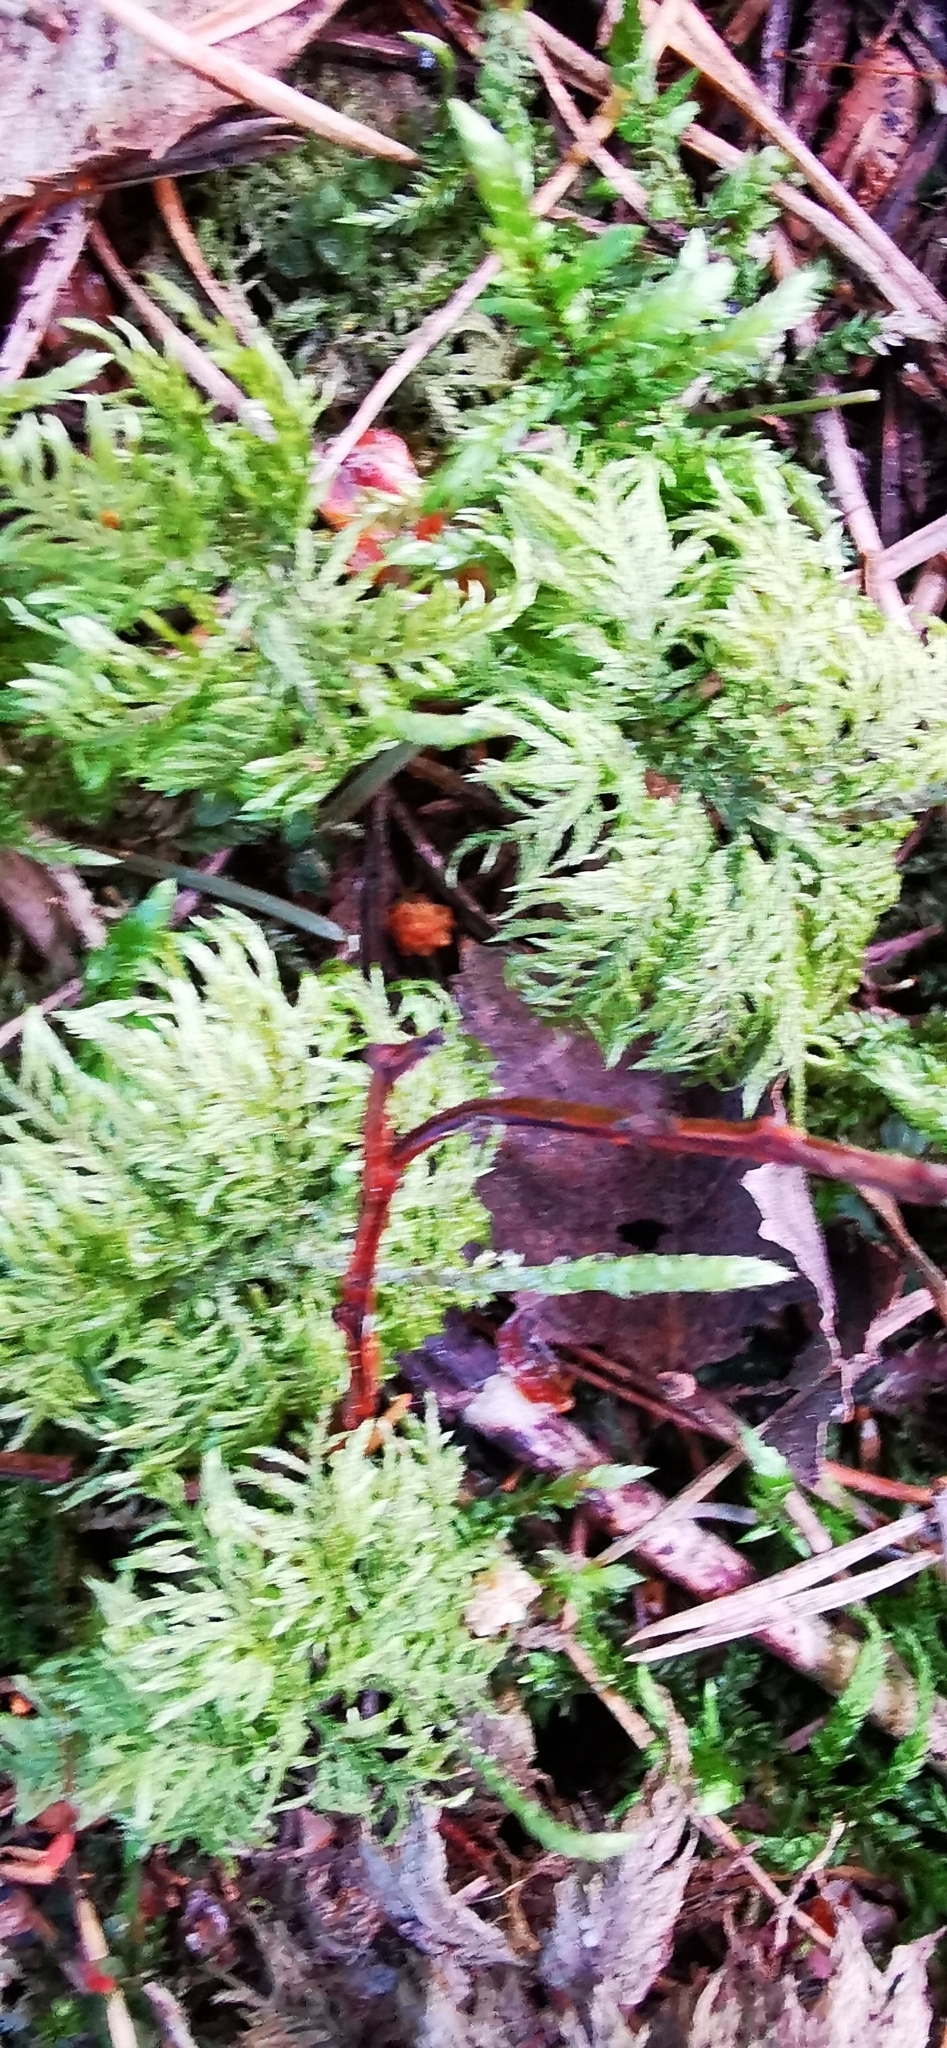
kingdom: Plantae
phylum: Bryophyta
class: Bryopsida
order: Hypnales
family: Hylocomiaceae
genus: Hylocomium
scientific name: Hylocomium splendens
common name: Stairstep moss
